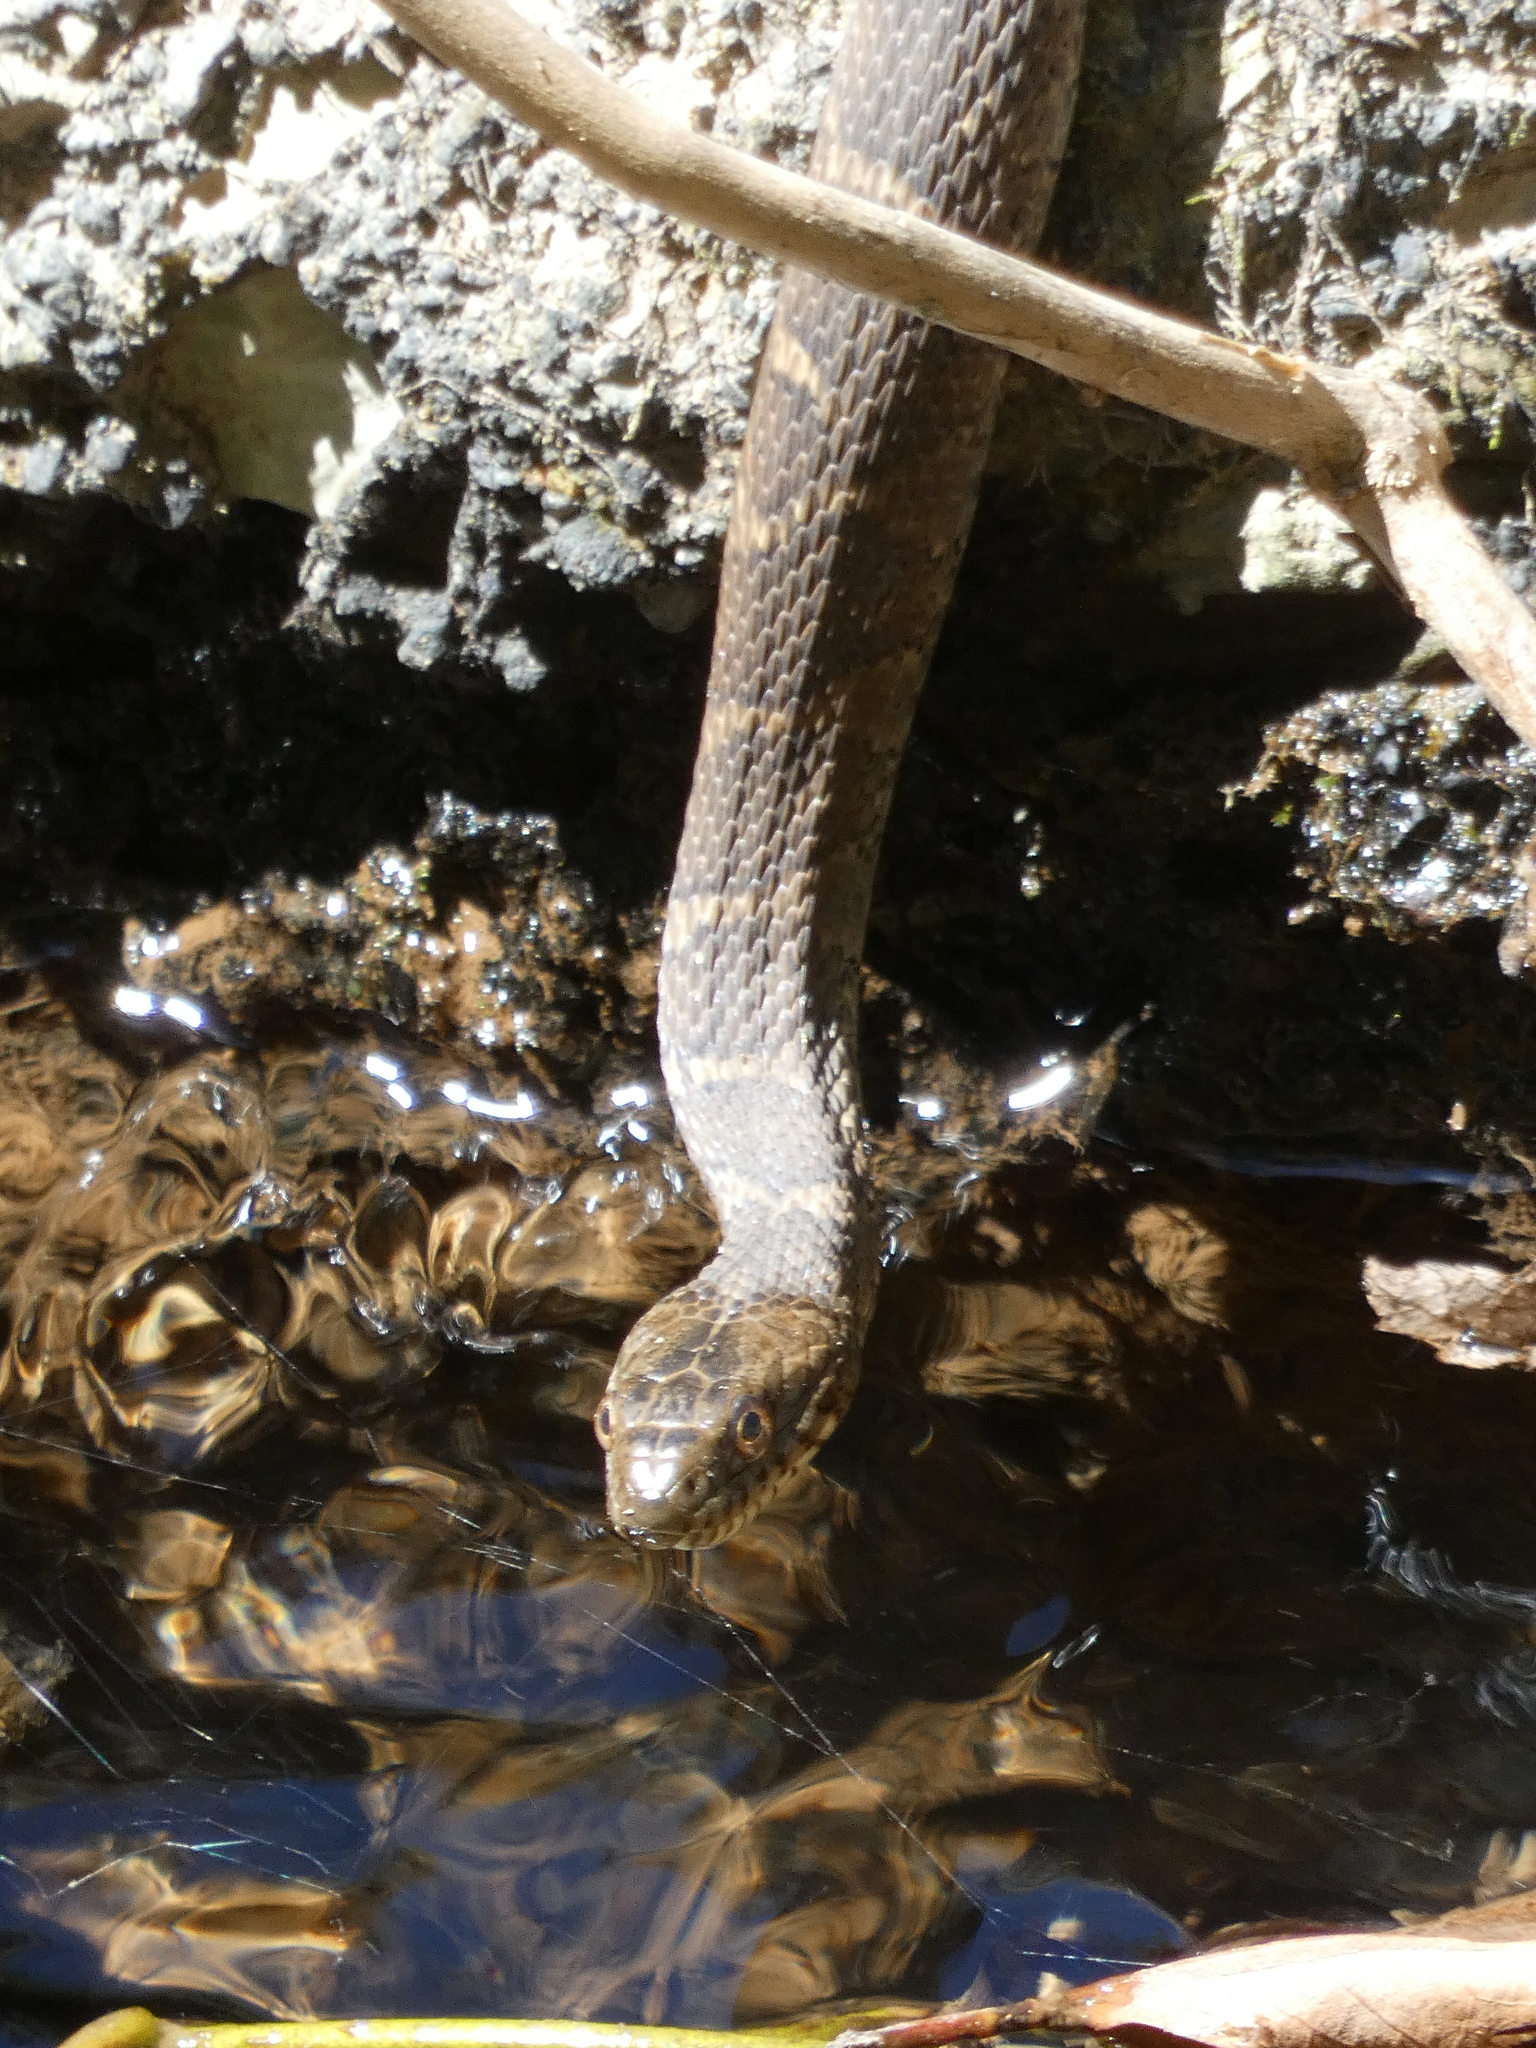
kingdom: Animalia
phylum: Chordata
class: Squamata
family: Colubridae
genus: Nerodia
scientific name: Nerodia sipedon
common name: Northern water snake
